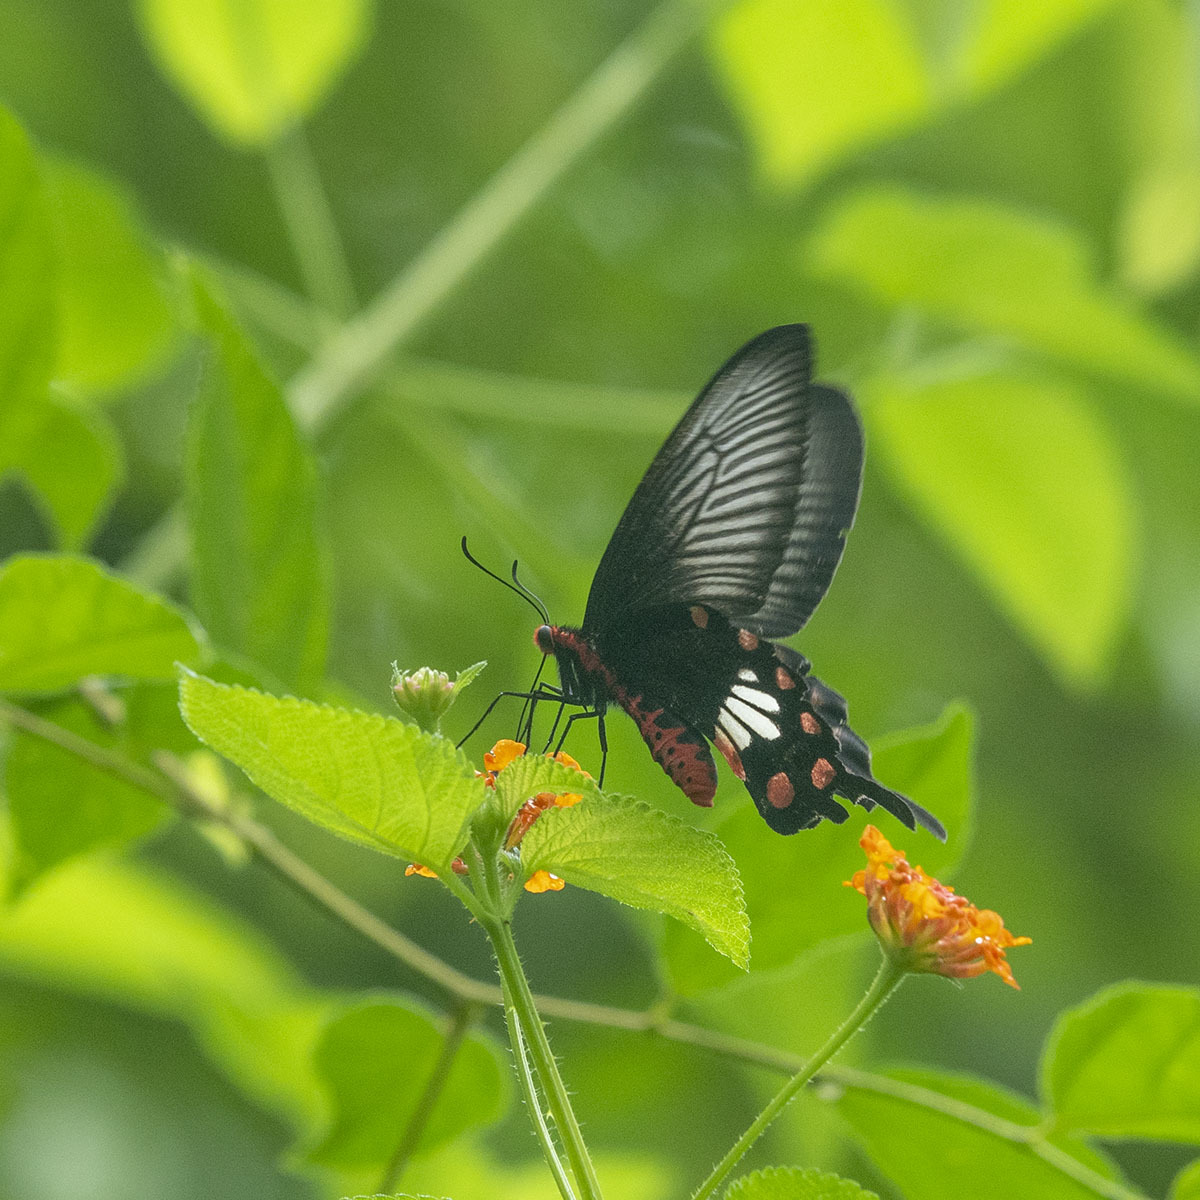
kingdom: Animalia
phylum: Arthropoda
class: Insecta
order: Lepidoptera
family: Papilionidae
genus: Pachliopta
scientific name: Pachliopta aristolochiae
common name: Common rose
